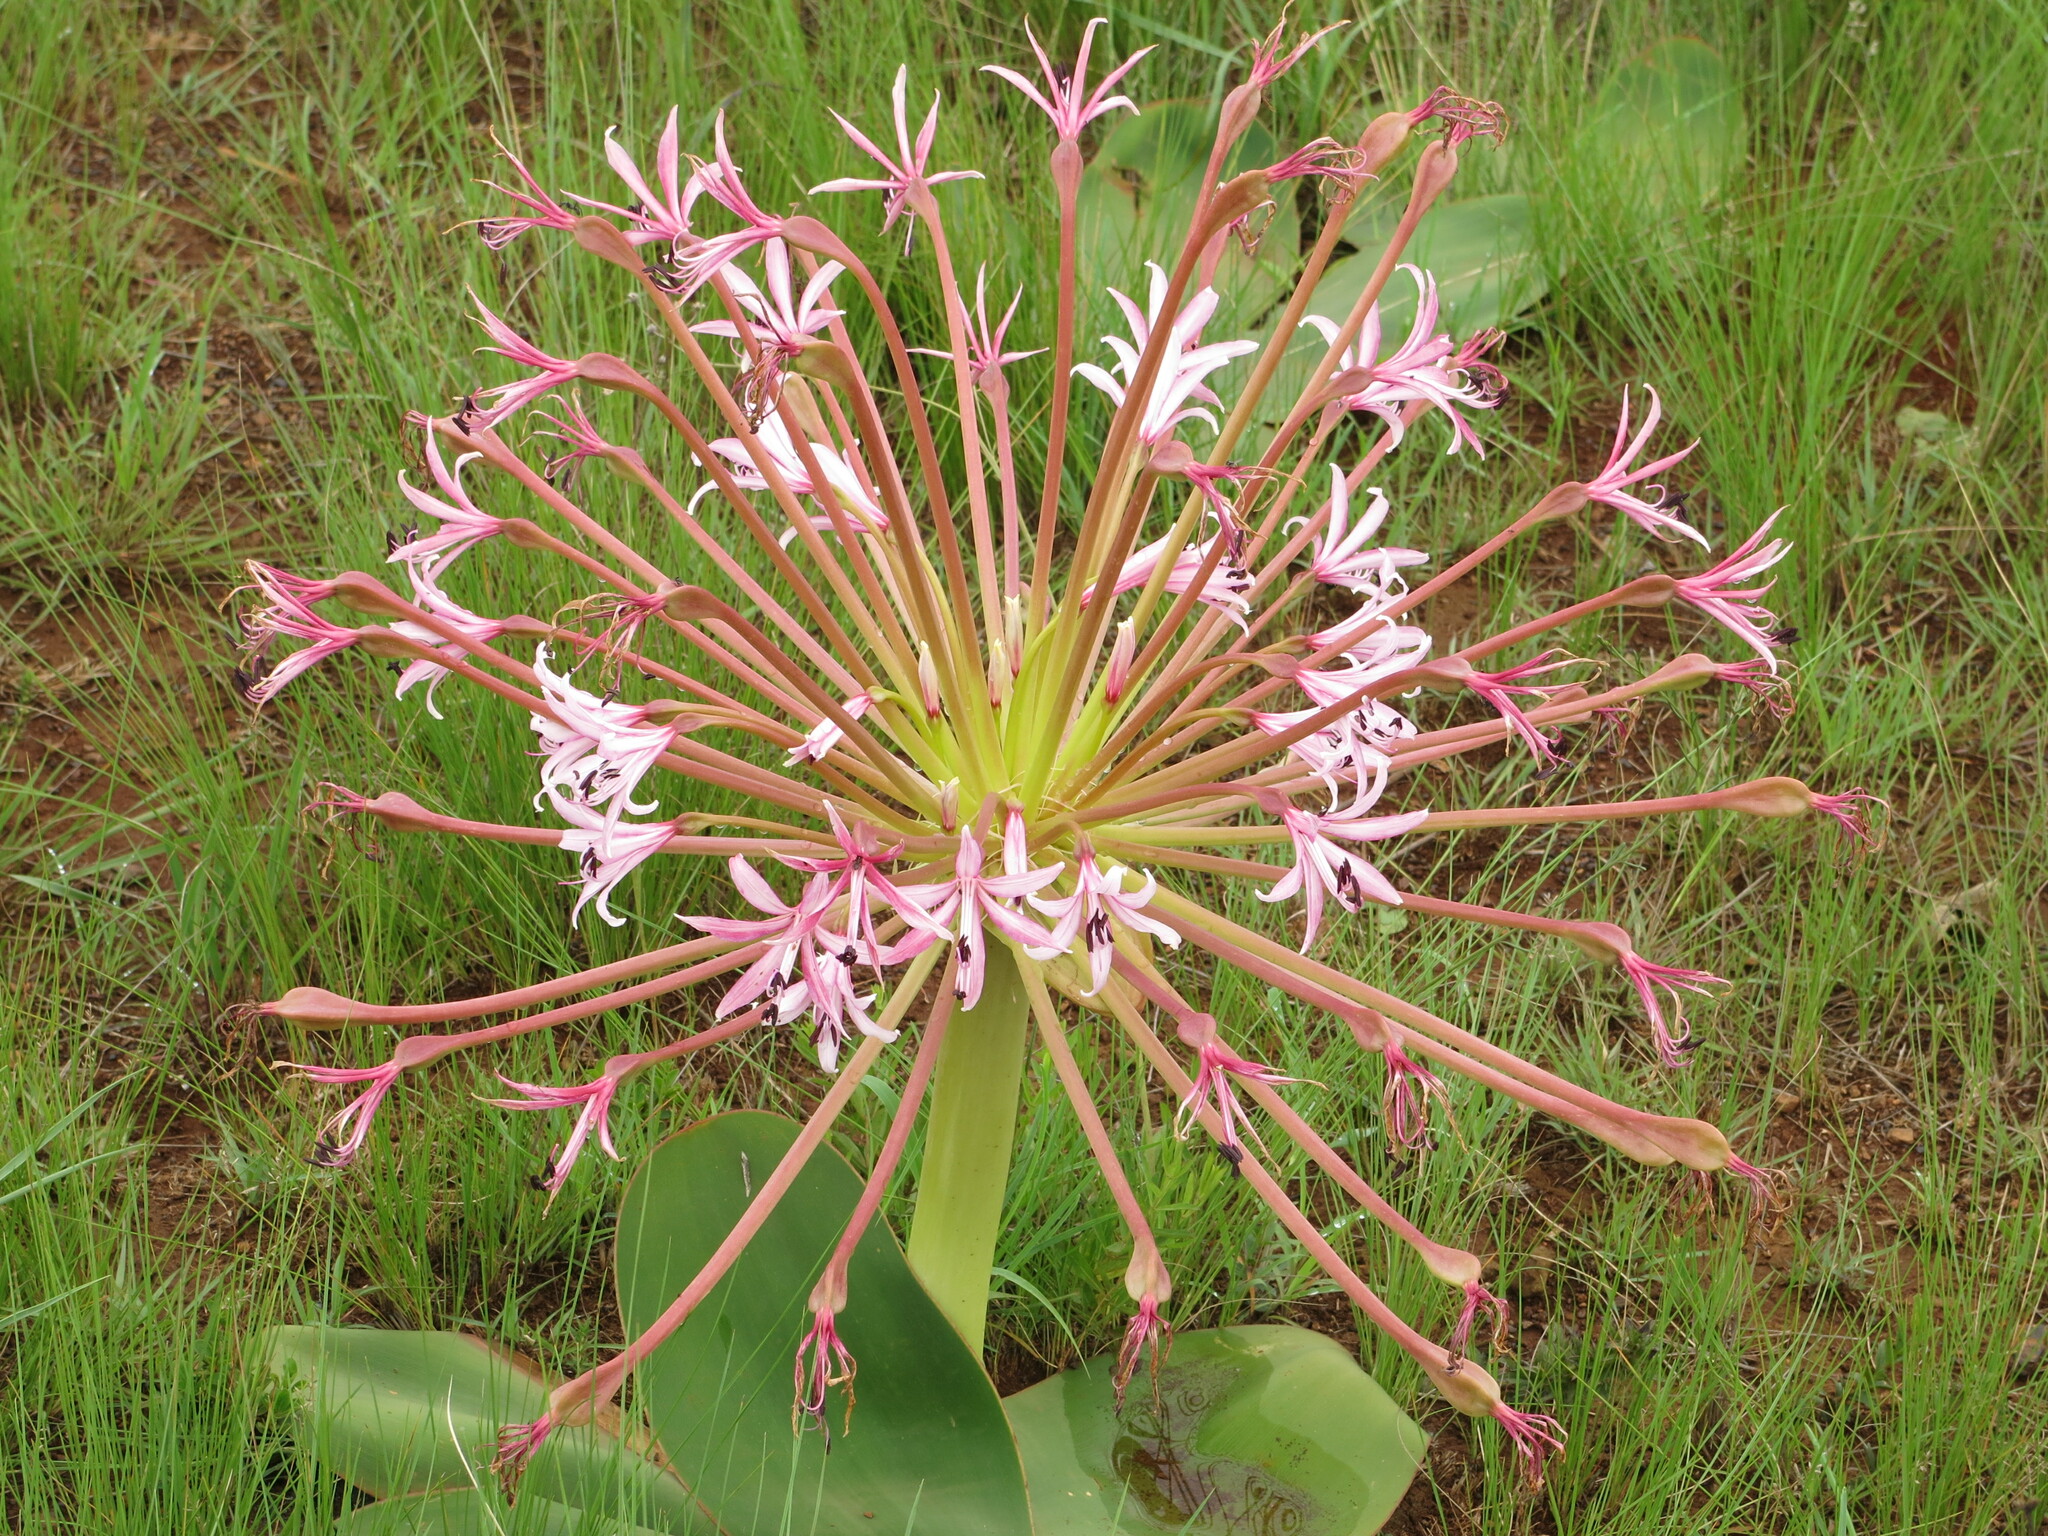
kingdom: Plantae
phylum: Tracheophyta
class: Liliopsida
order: Asparagales
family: Amaryllidaceae
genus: Brunsvigia
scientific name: Brunsvigia radulosa
